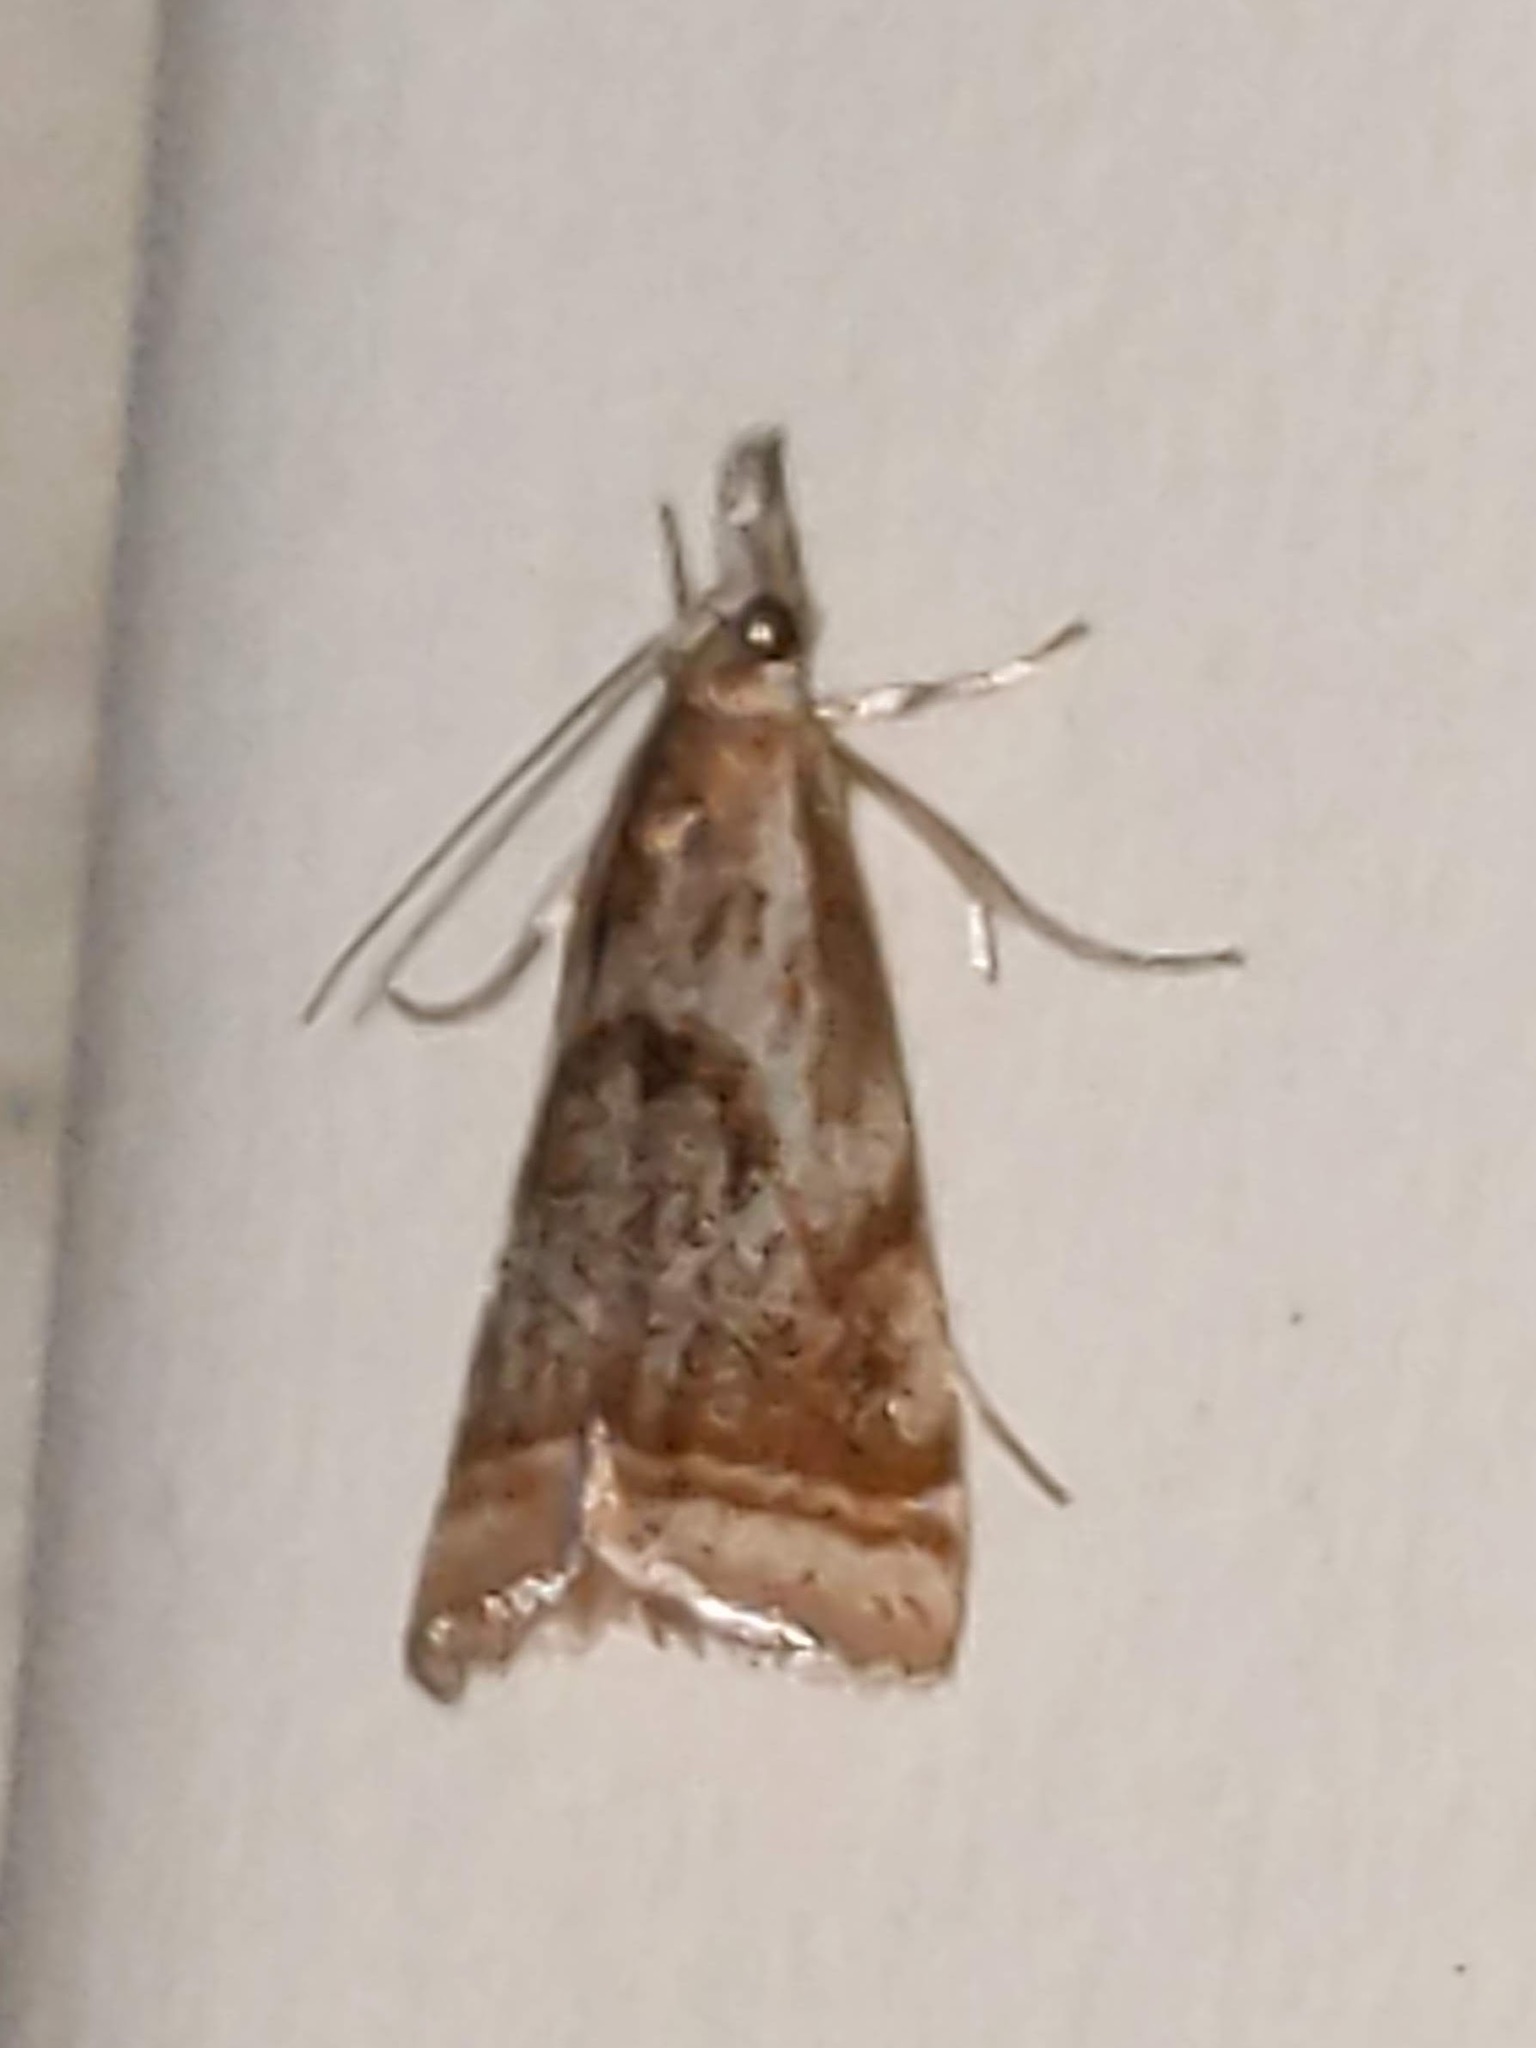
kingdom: Animalia
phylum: Arthropoda
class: Insecta
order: Lepidoptera
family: Crambidae
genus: Microcrambus
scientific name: Microcrambus elegans
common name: Elegant grass-veneer
